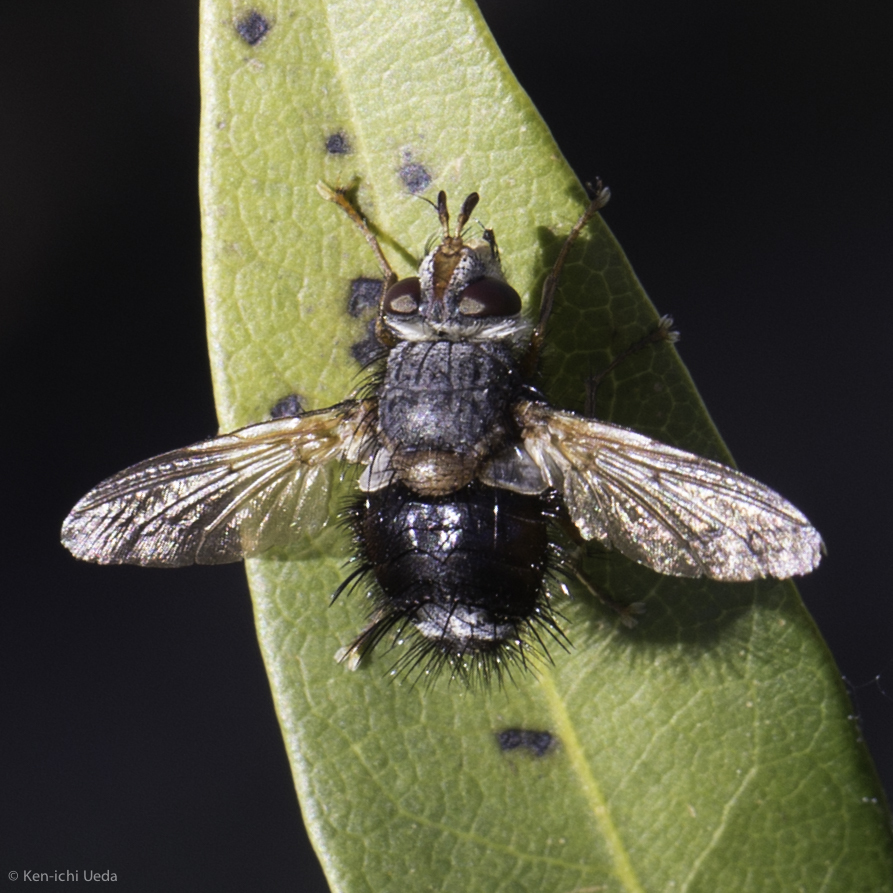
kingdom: Animalia
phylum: Arthropoda
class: Insecta
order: Diptera
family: Tachinidae
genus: Epalpus
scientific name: Epalpus signifer
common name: Early tachinid fly
